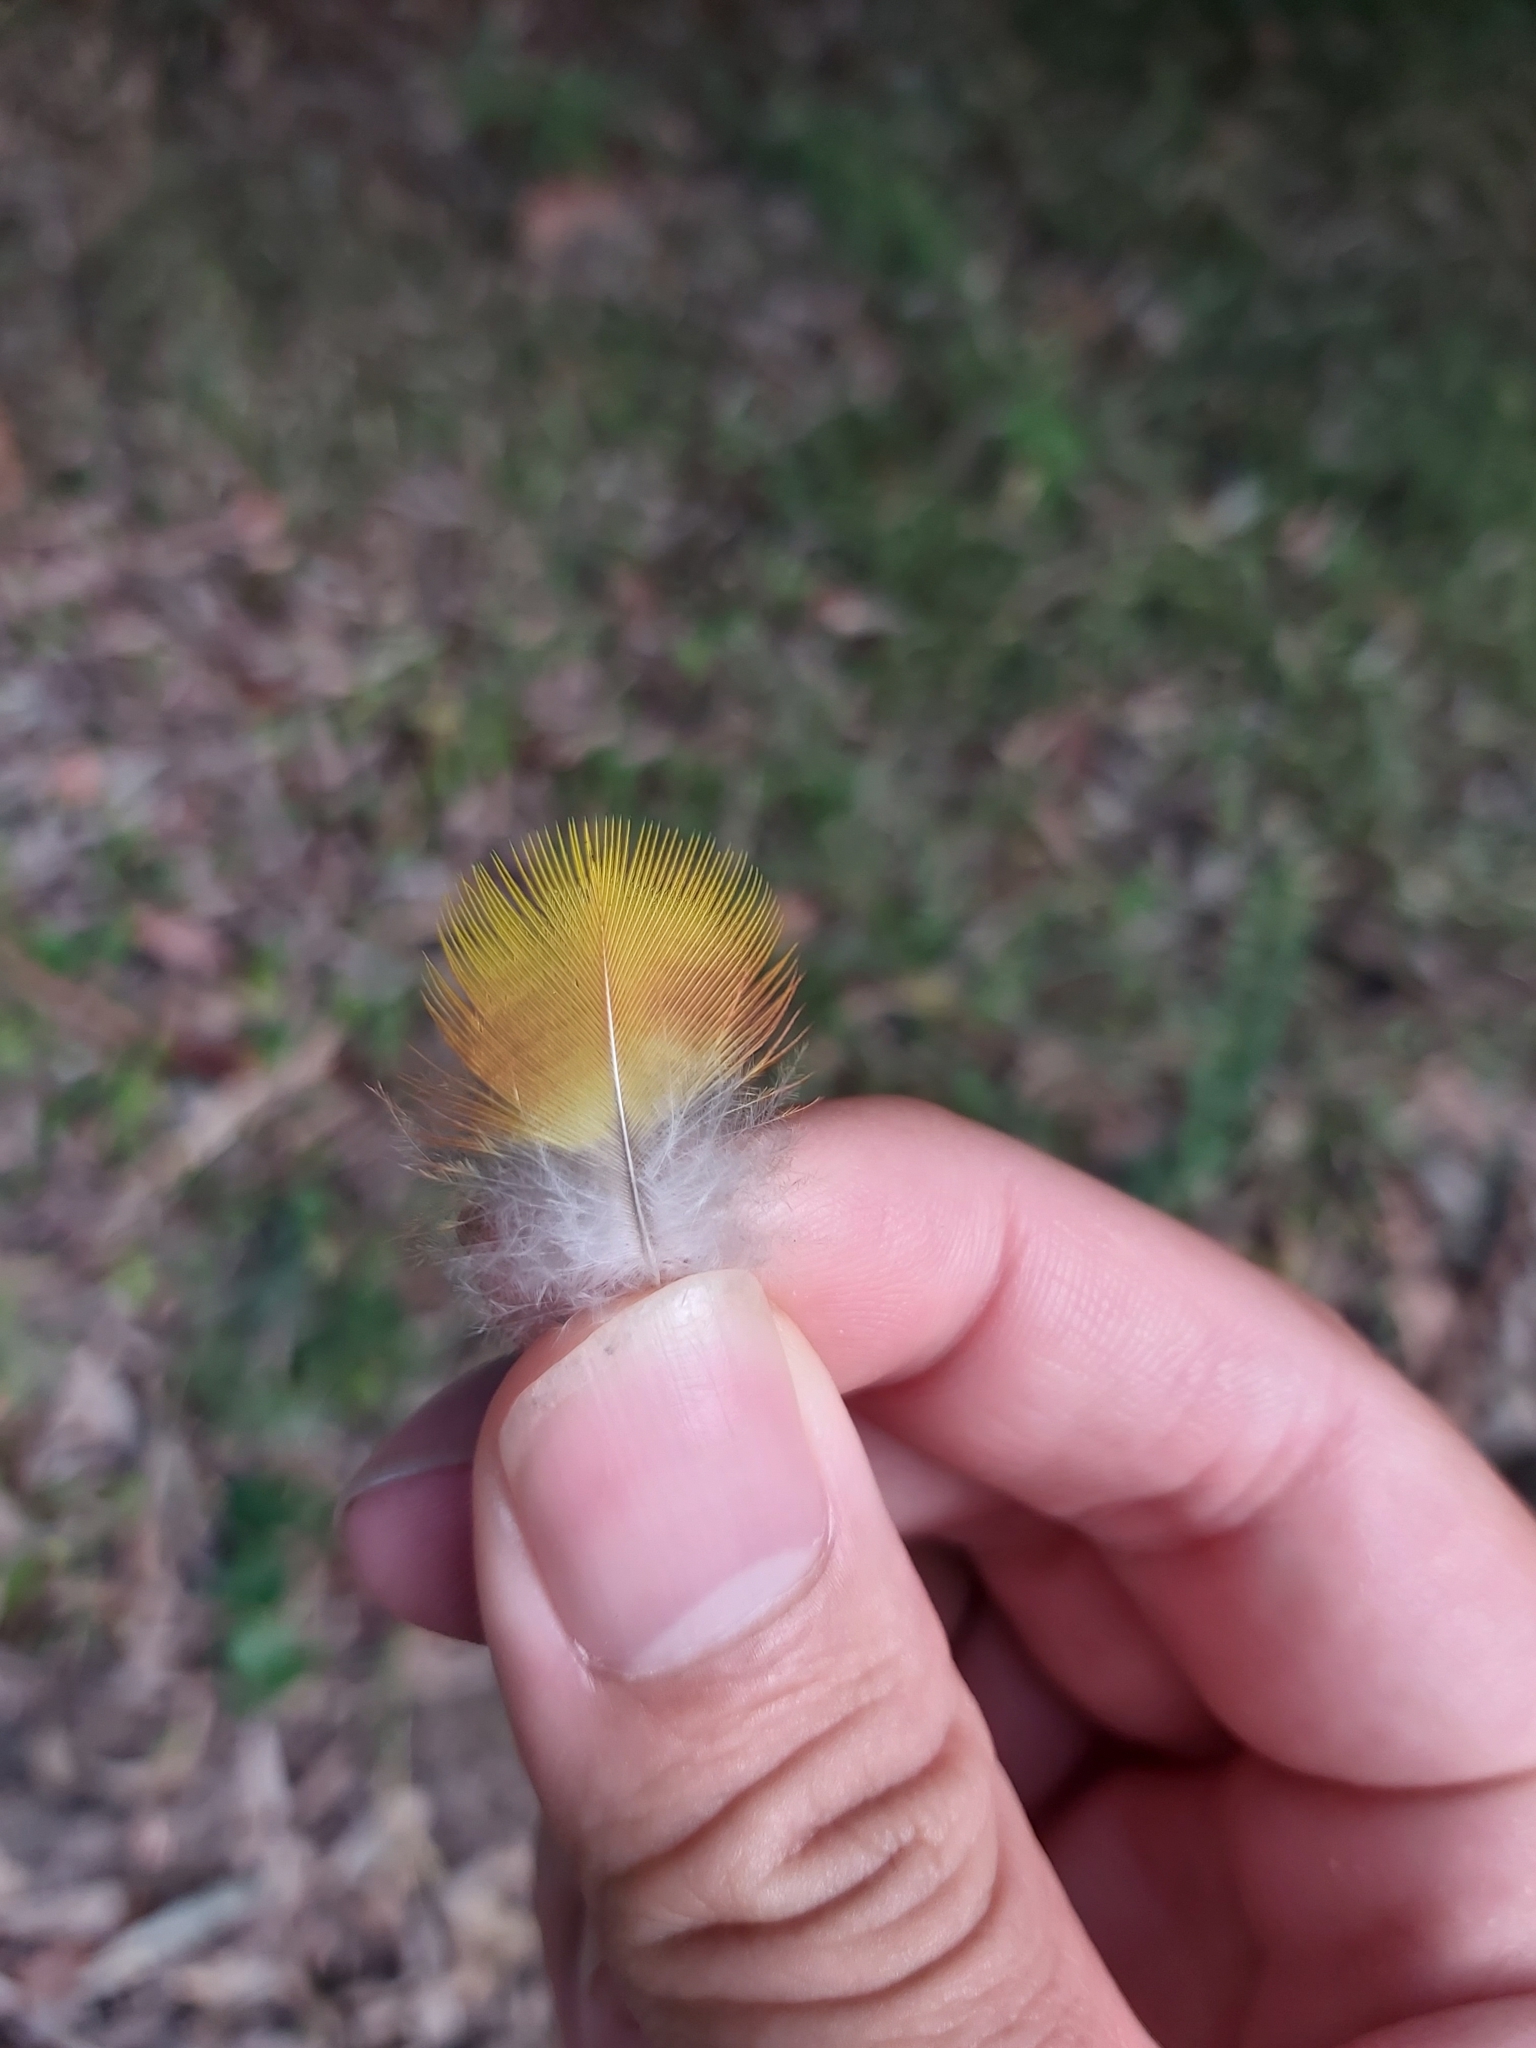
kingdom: Animalia
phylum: Chordata
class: Aves
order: Psittaciformes
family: Psittacidae
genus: Trichoglossus
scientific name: Trichoglossus haematodus
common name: Coconut lorikeet
